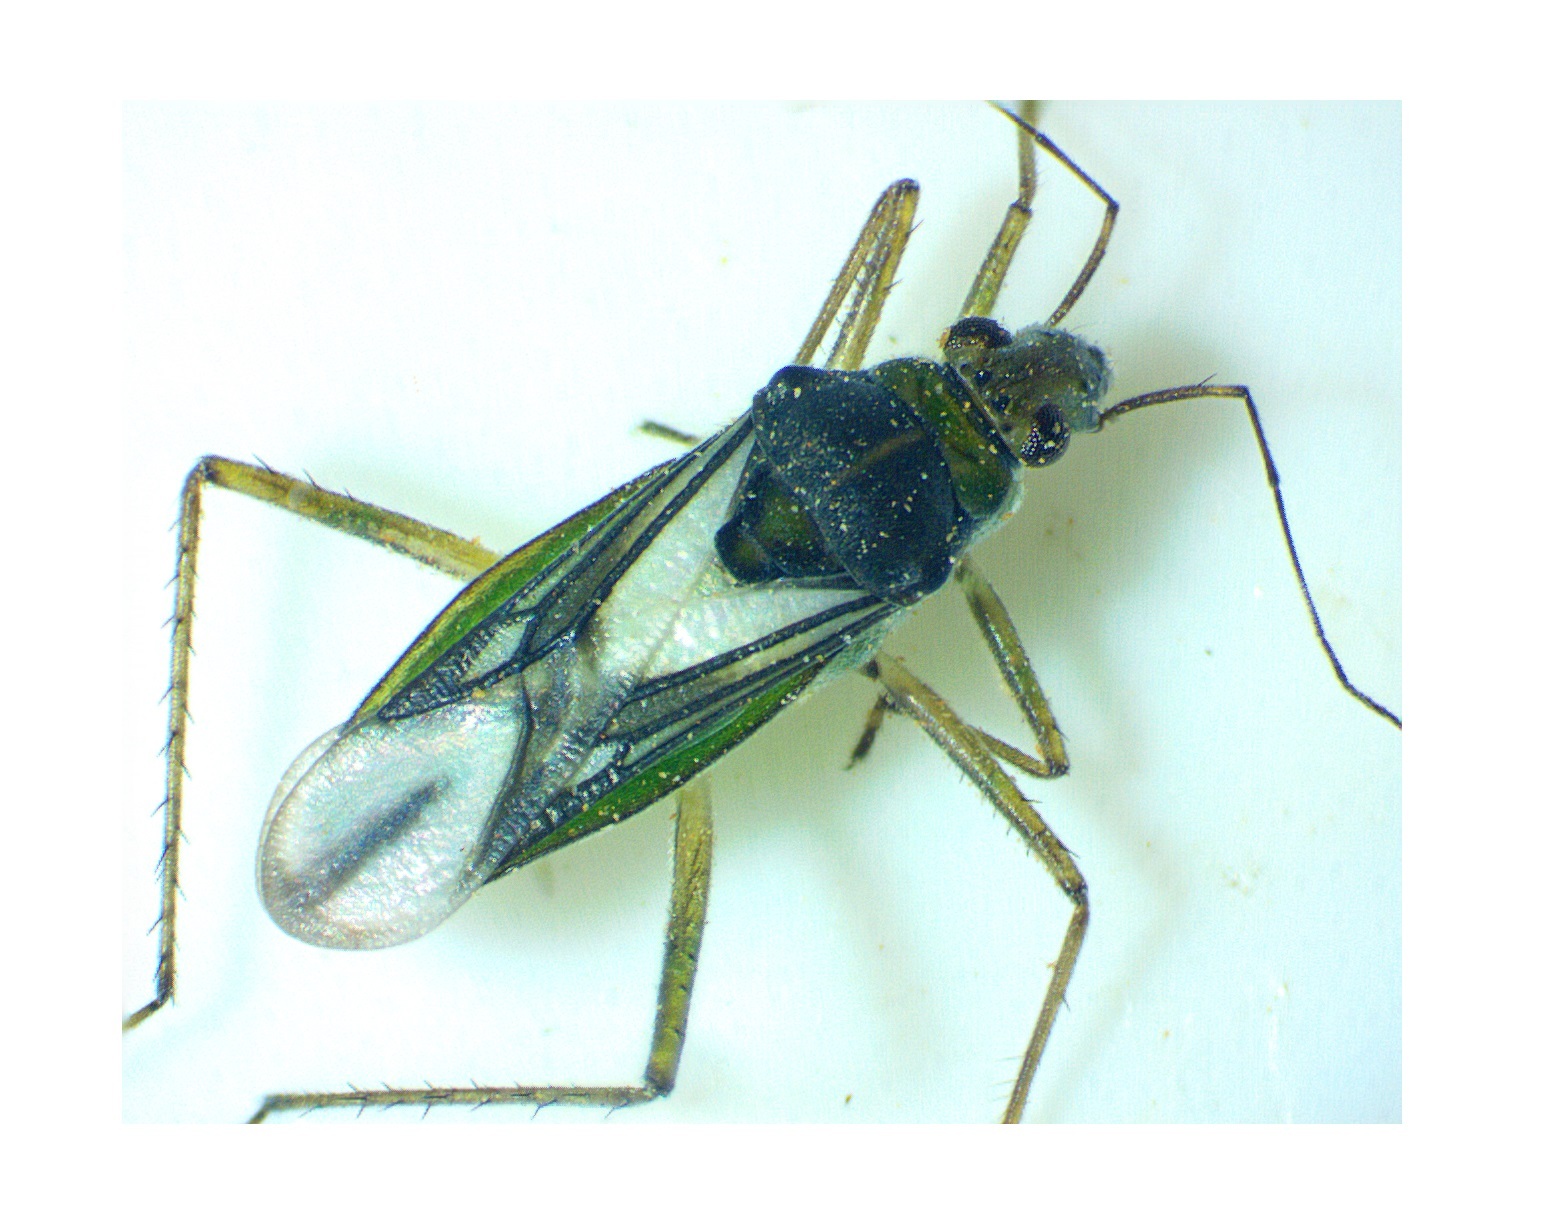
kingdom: Animalia
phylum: Arthropoda
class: Insecta
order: Hemiptera
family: Mesoveliidae
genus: Mesovelia
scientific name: Mesovelia mulsanti
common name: Water treaders
